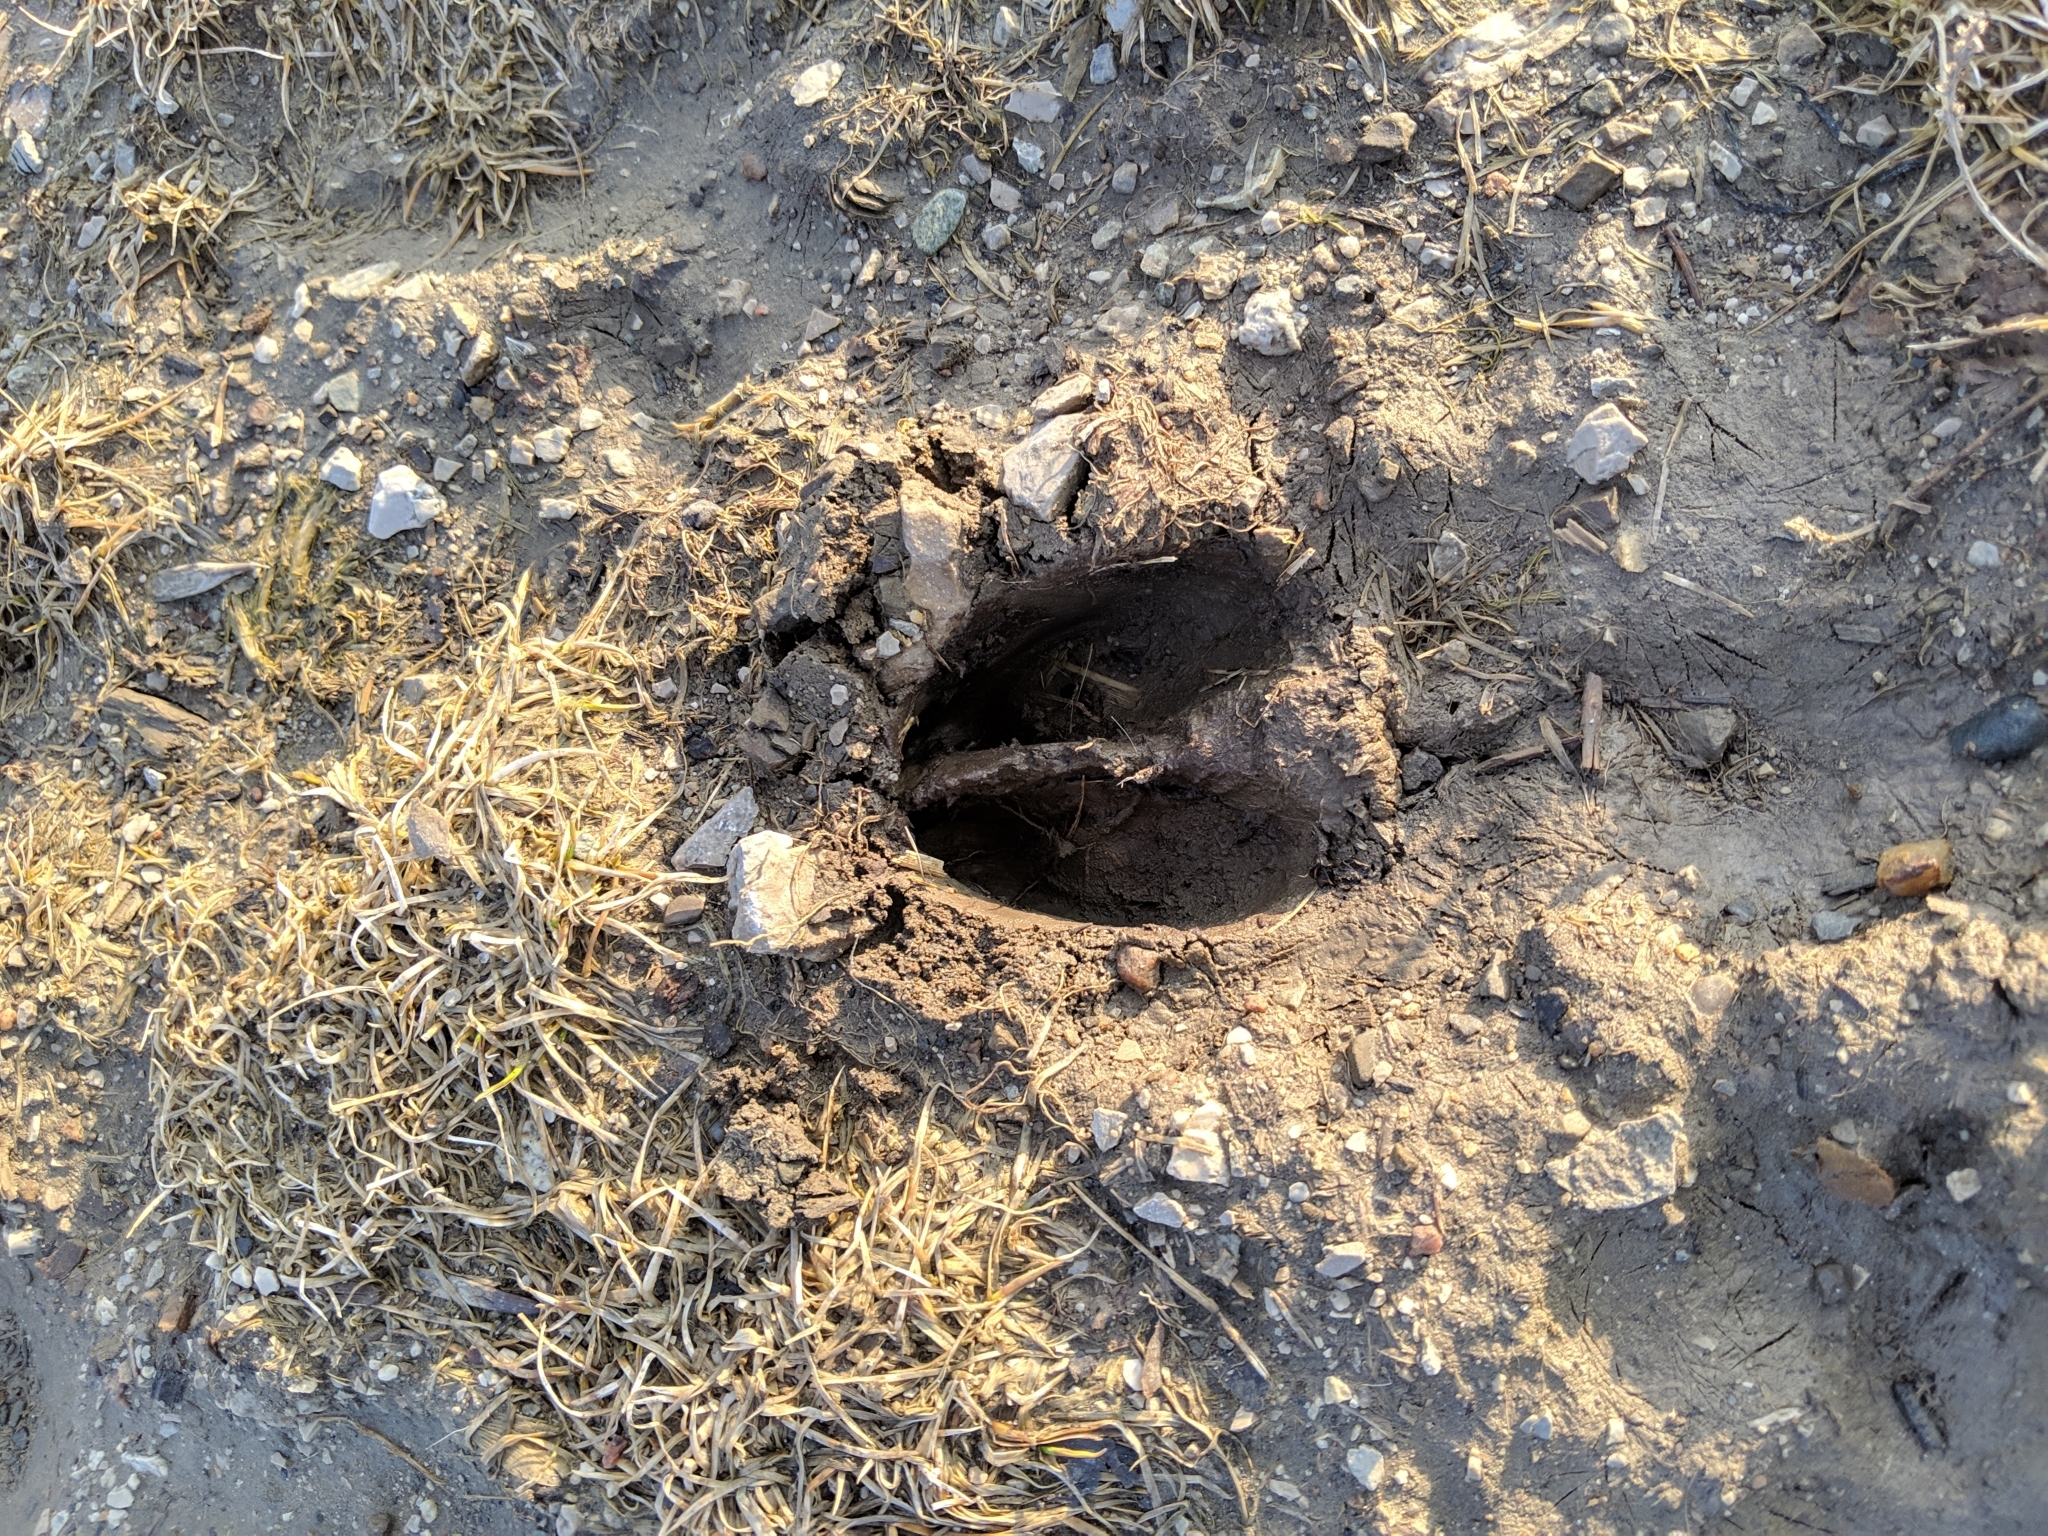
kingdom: Animalia
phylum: Chordata
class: Mammalia
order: Artiodactyla
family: Cervidae
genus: Odocoileus
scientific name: Odocoileus virginianus
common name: White-tailed deer
